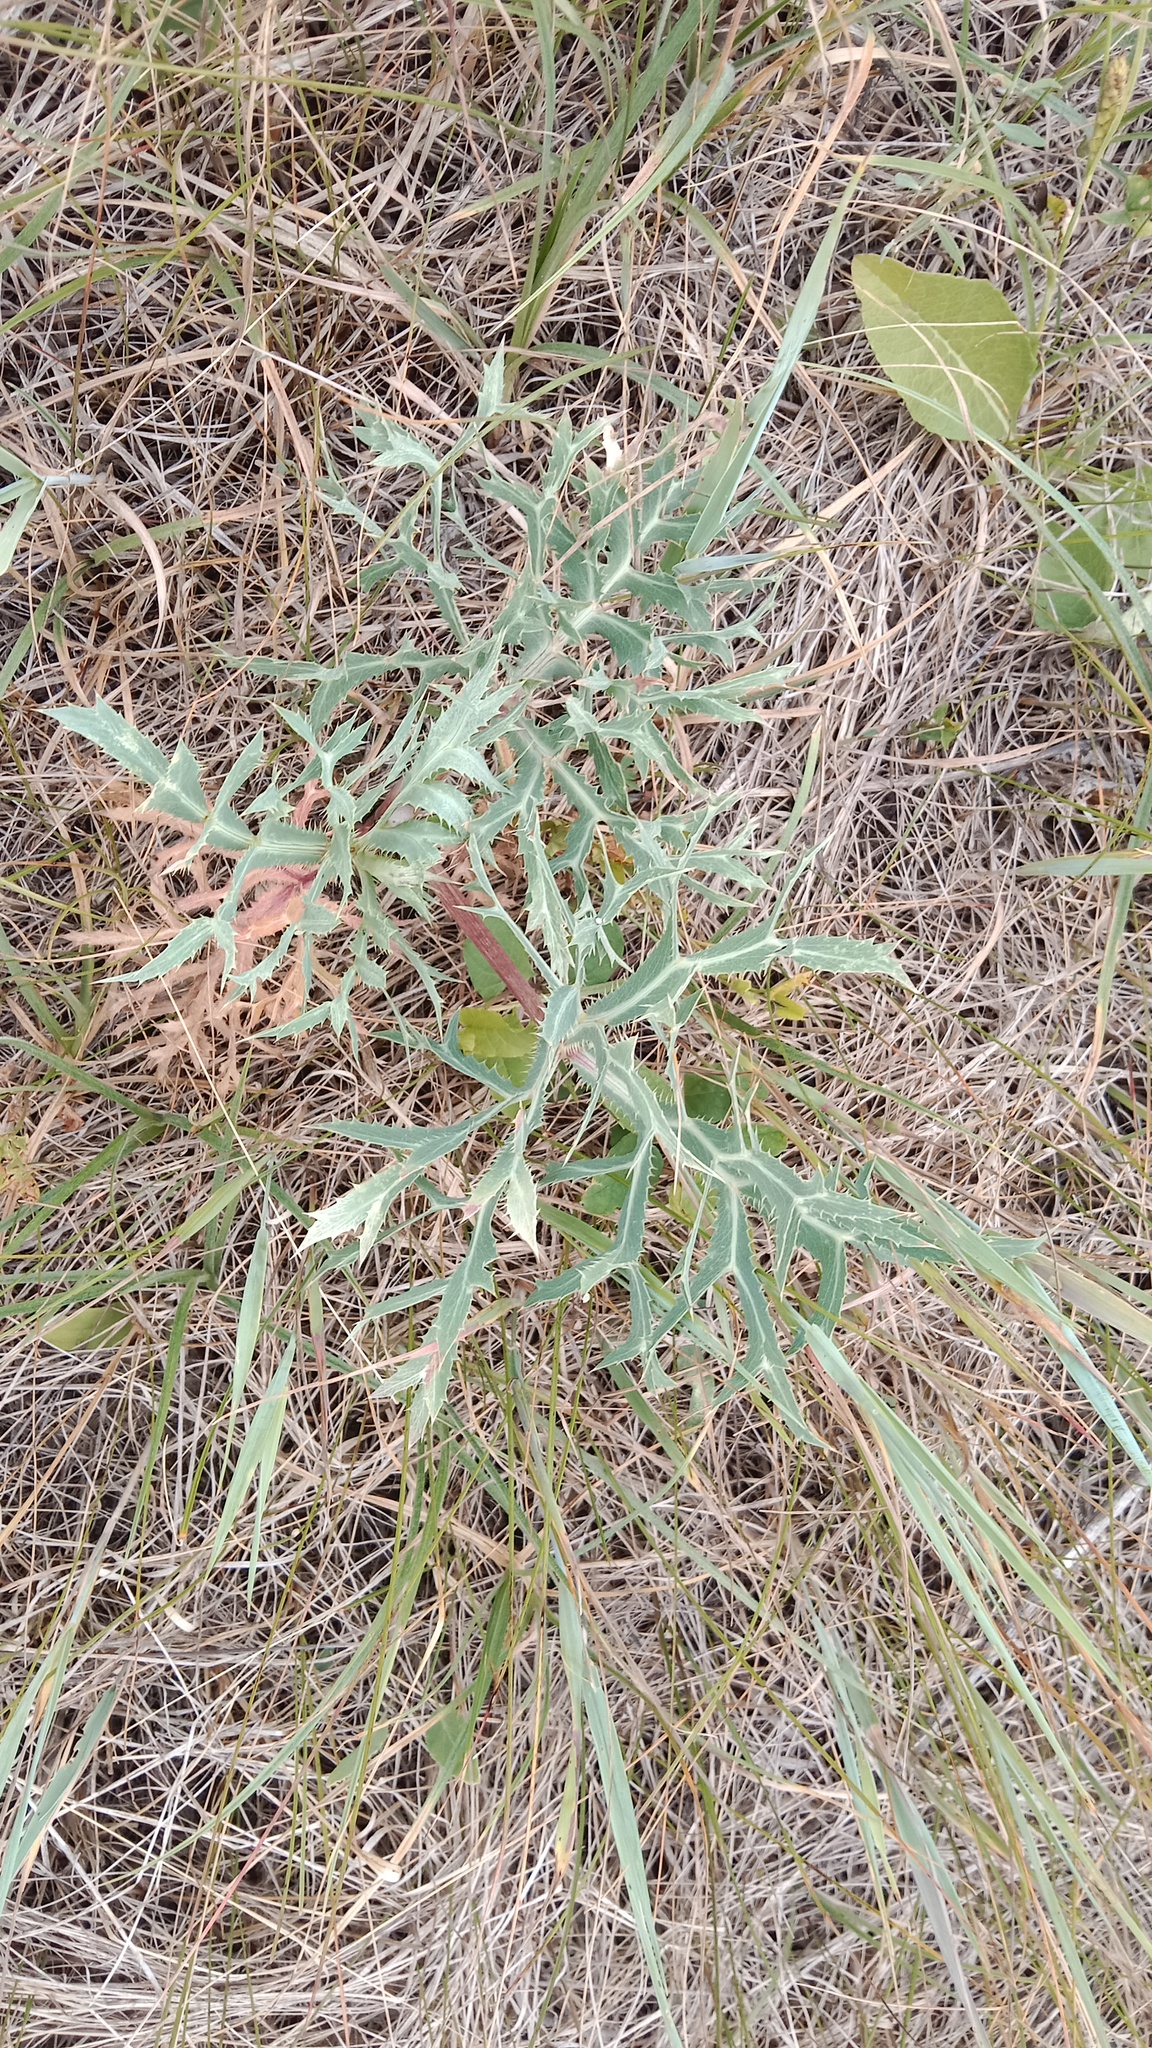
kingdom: Plantae
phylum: Tracheophyta
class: Magnoliopsida
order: Apiales
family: Apiaceae
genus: Eryngium
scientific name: Eryngium campestre
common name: Field eryngo
